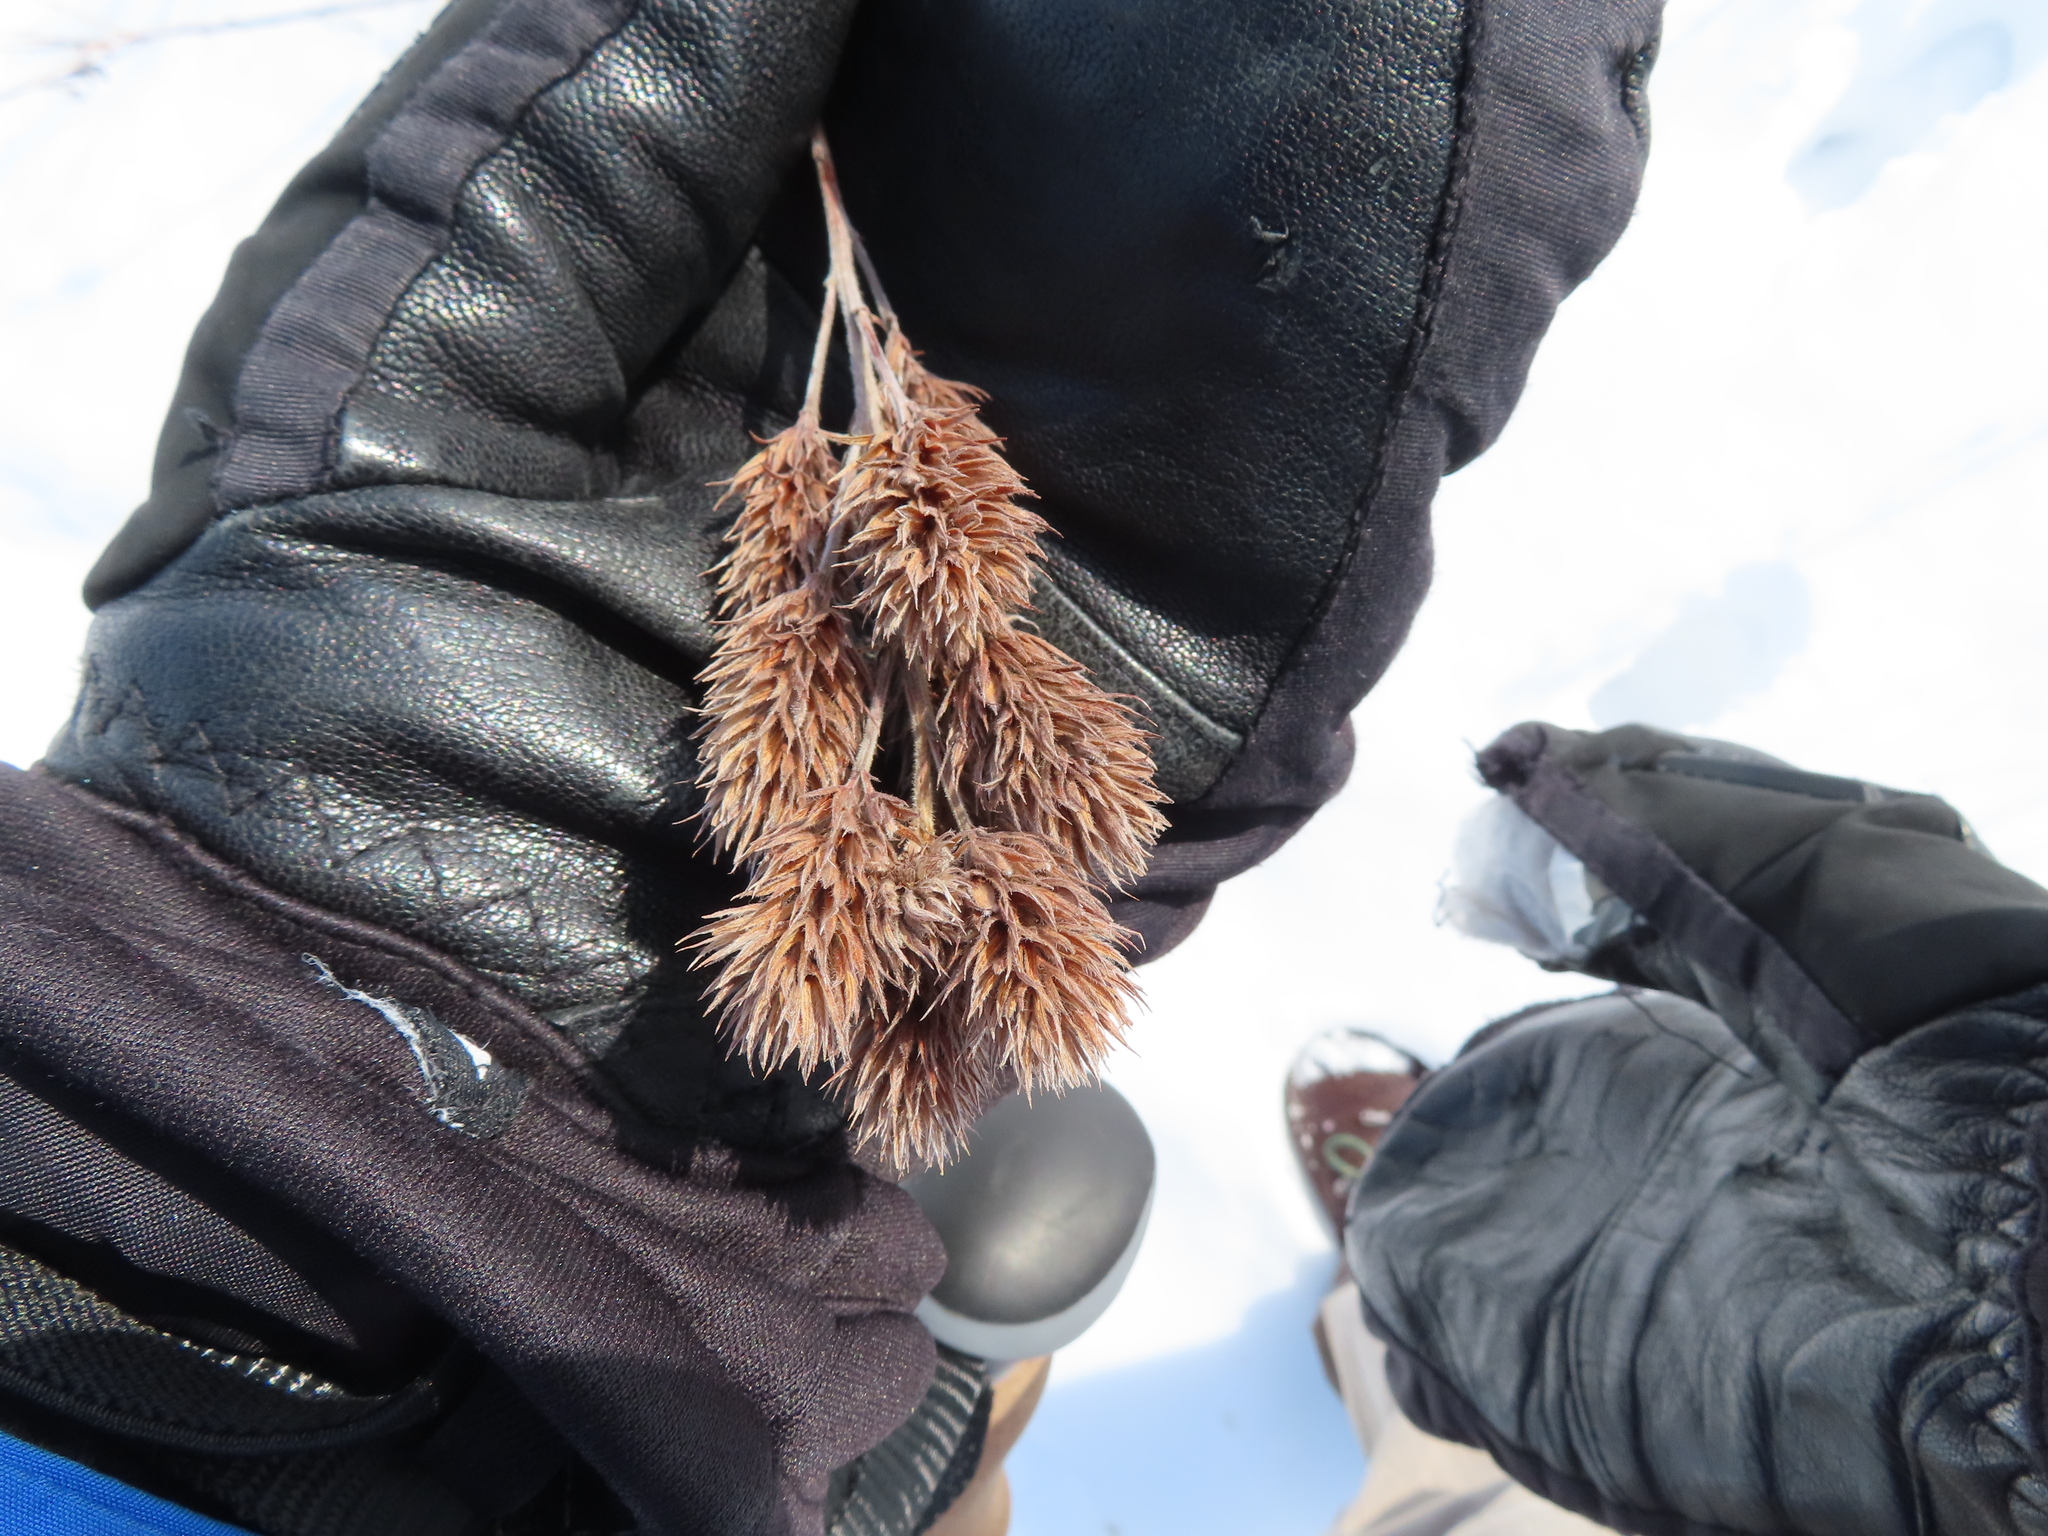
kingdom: Plantae
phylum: Tracheophyta
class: Magnoliopsida
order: Fabales
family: Fabaceae
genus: Lespedeza
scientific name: Lespedeza capitata
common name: Dusty clover
